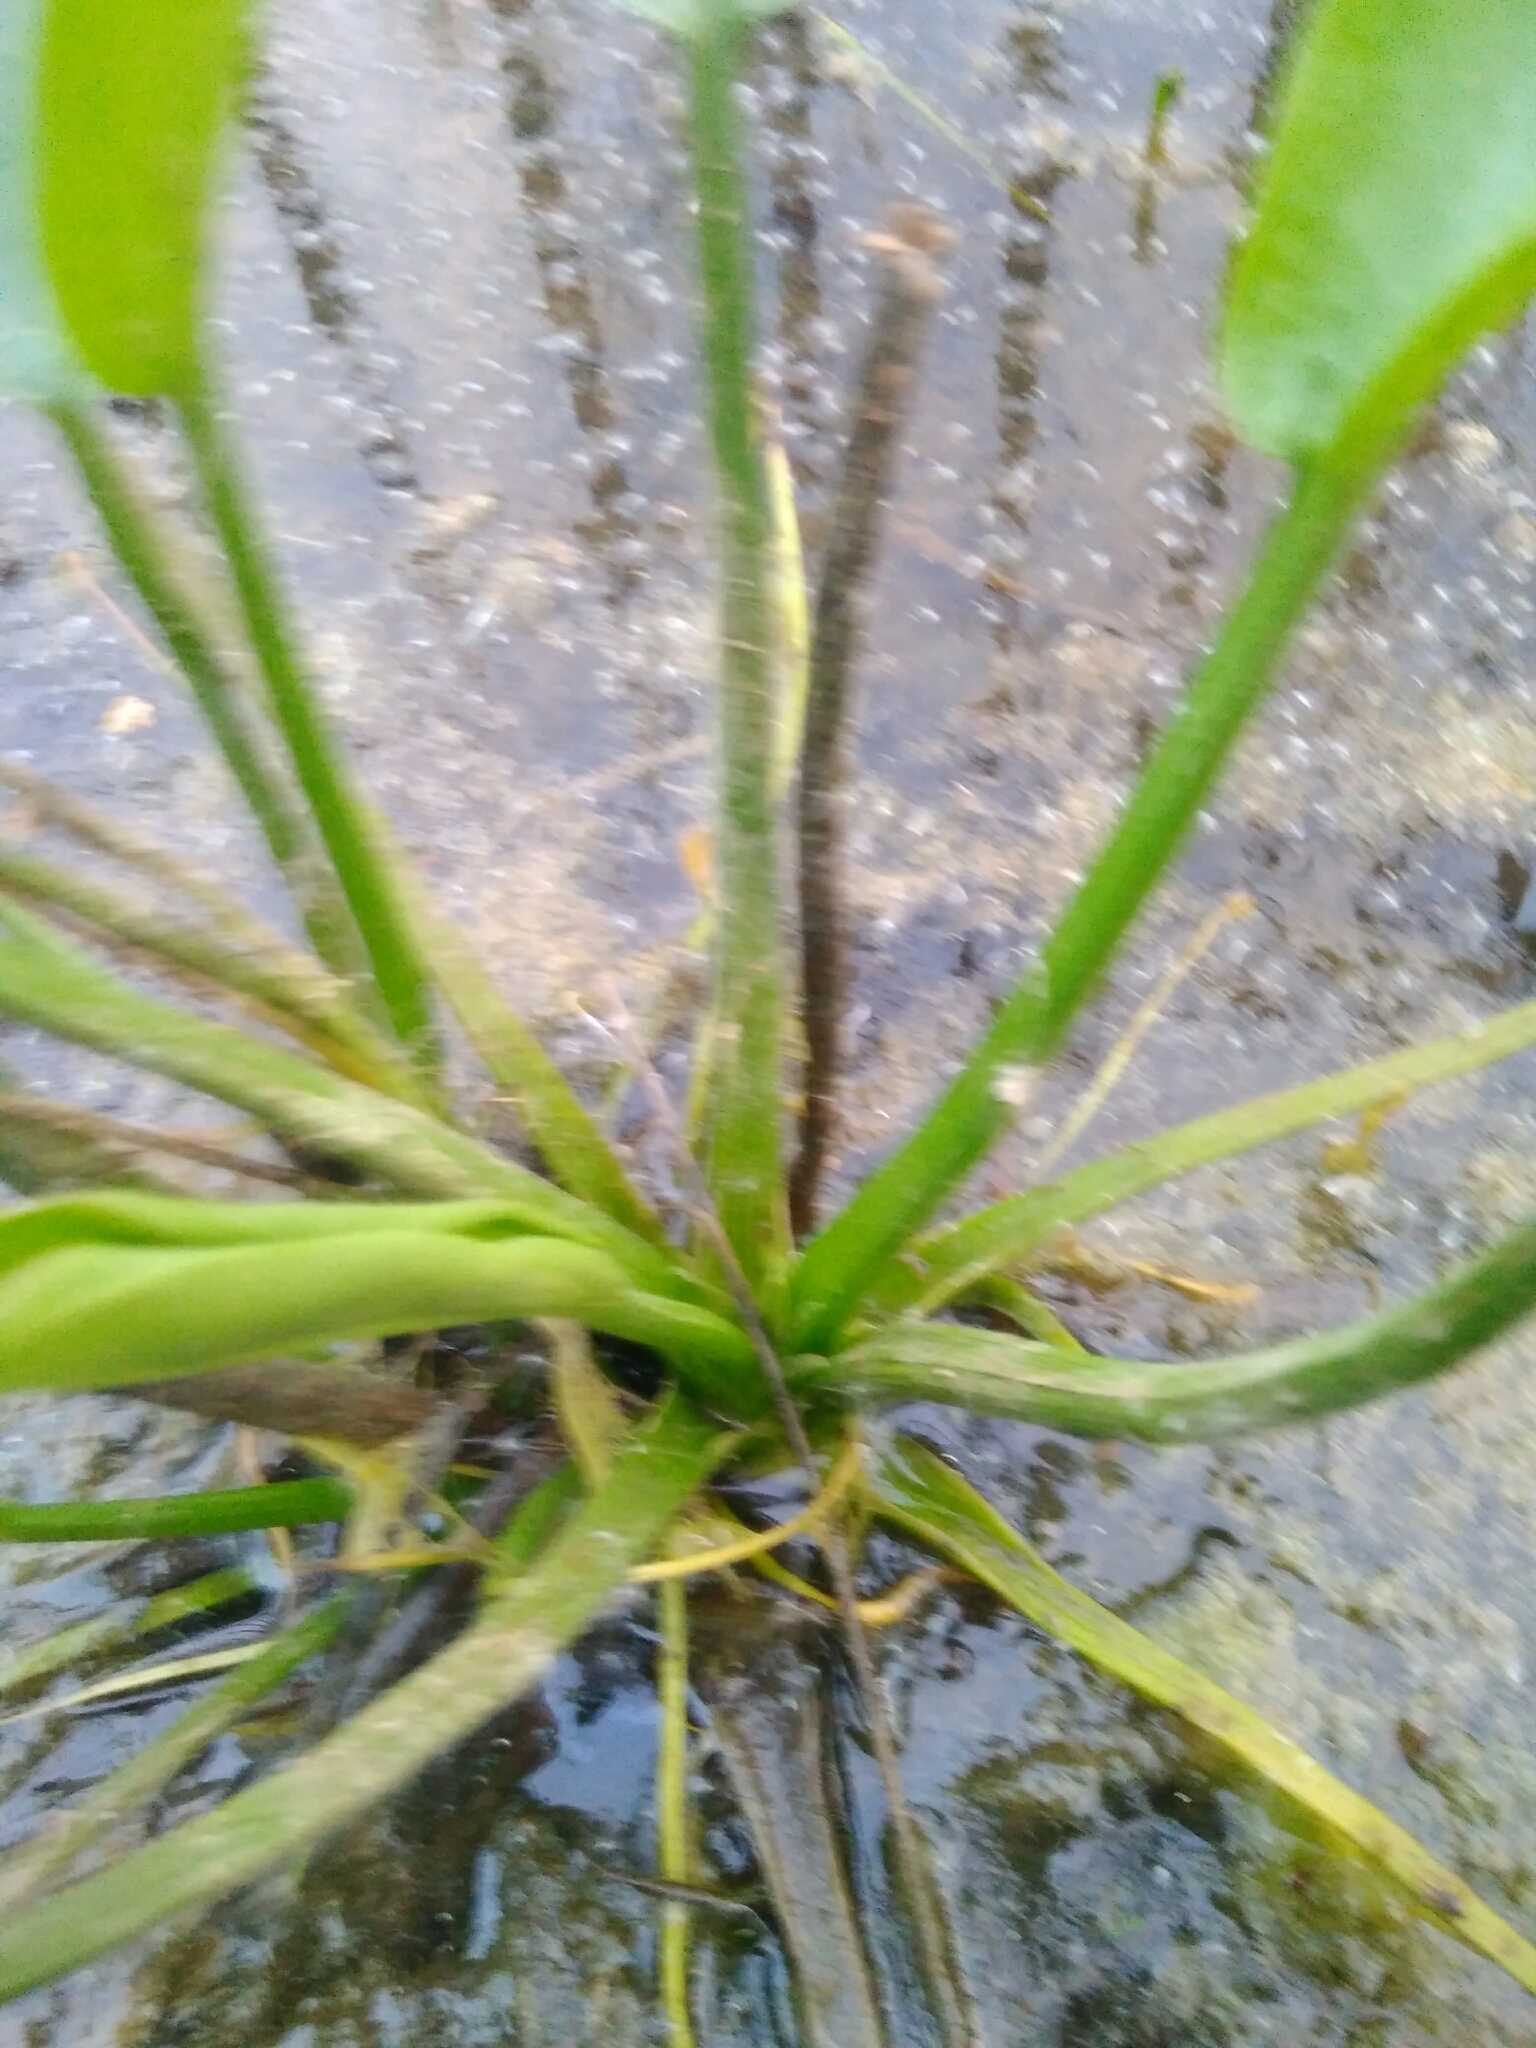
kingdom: Plantae
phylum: Tracheophyta
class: Liliopsida
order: Alismatales
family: Alismataceae
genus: Alisma
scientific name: Alisma plantago-aquatica
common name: Water-plantain
